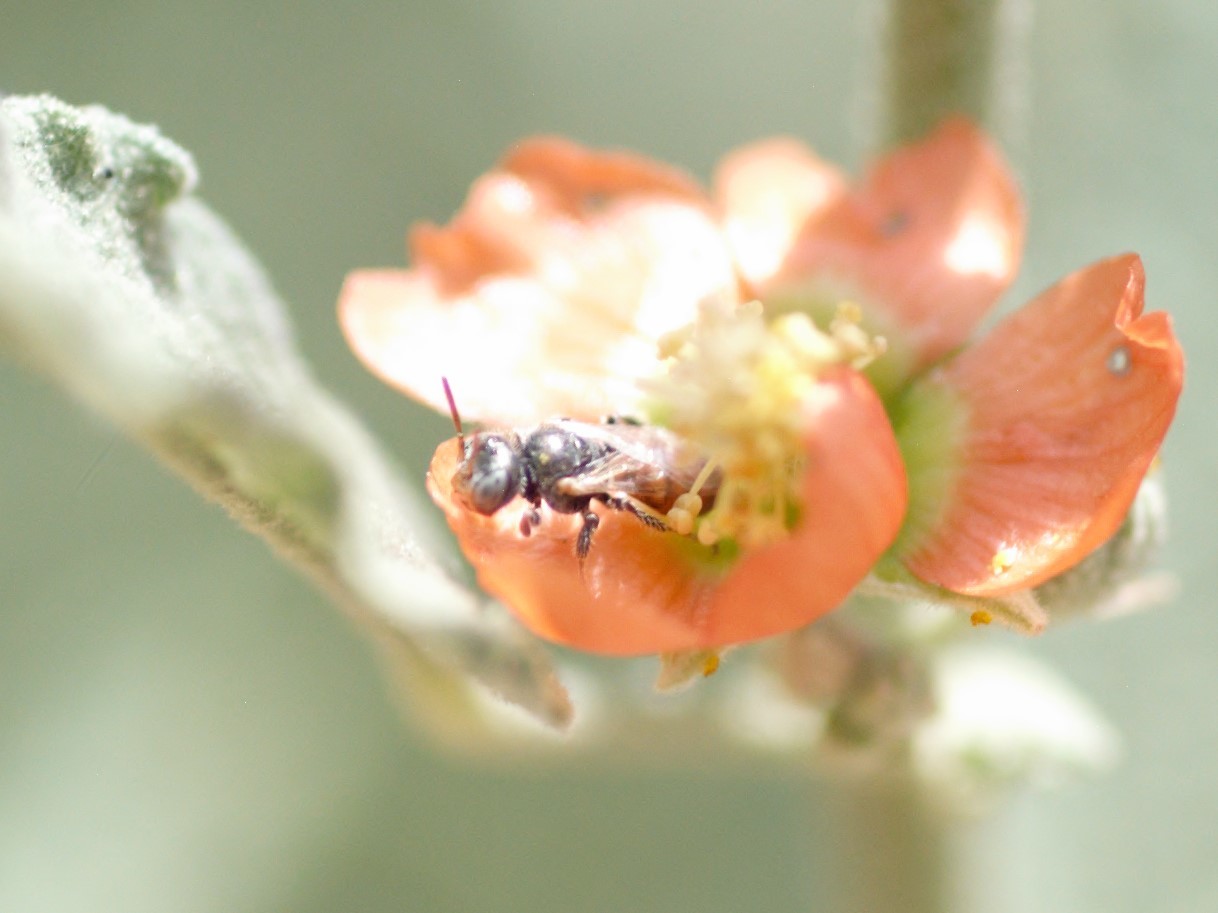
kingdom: Animalia
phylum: Arthropoda
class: Insecta
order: Hymenoptera
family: Andrenidae
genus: Macrotera
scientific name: Macrotera latior
